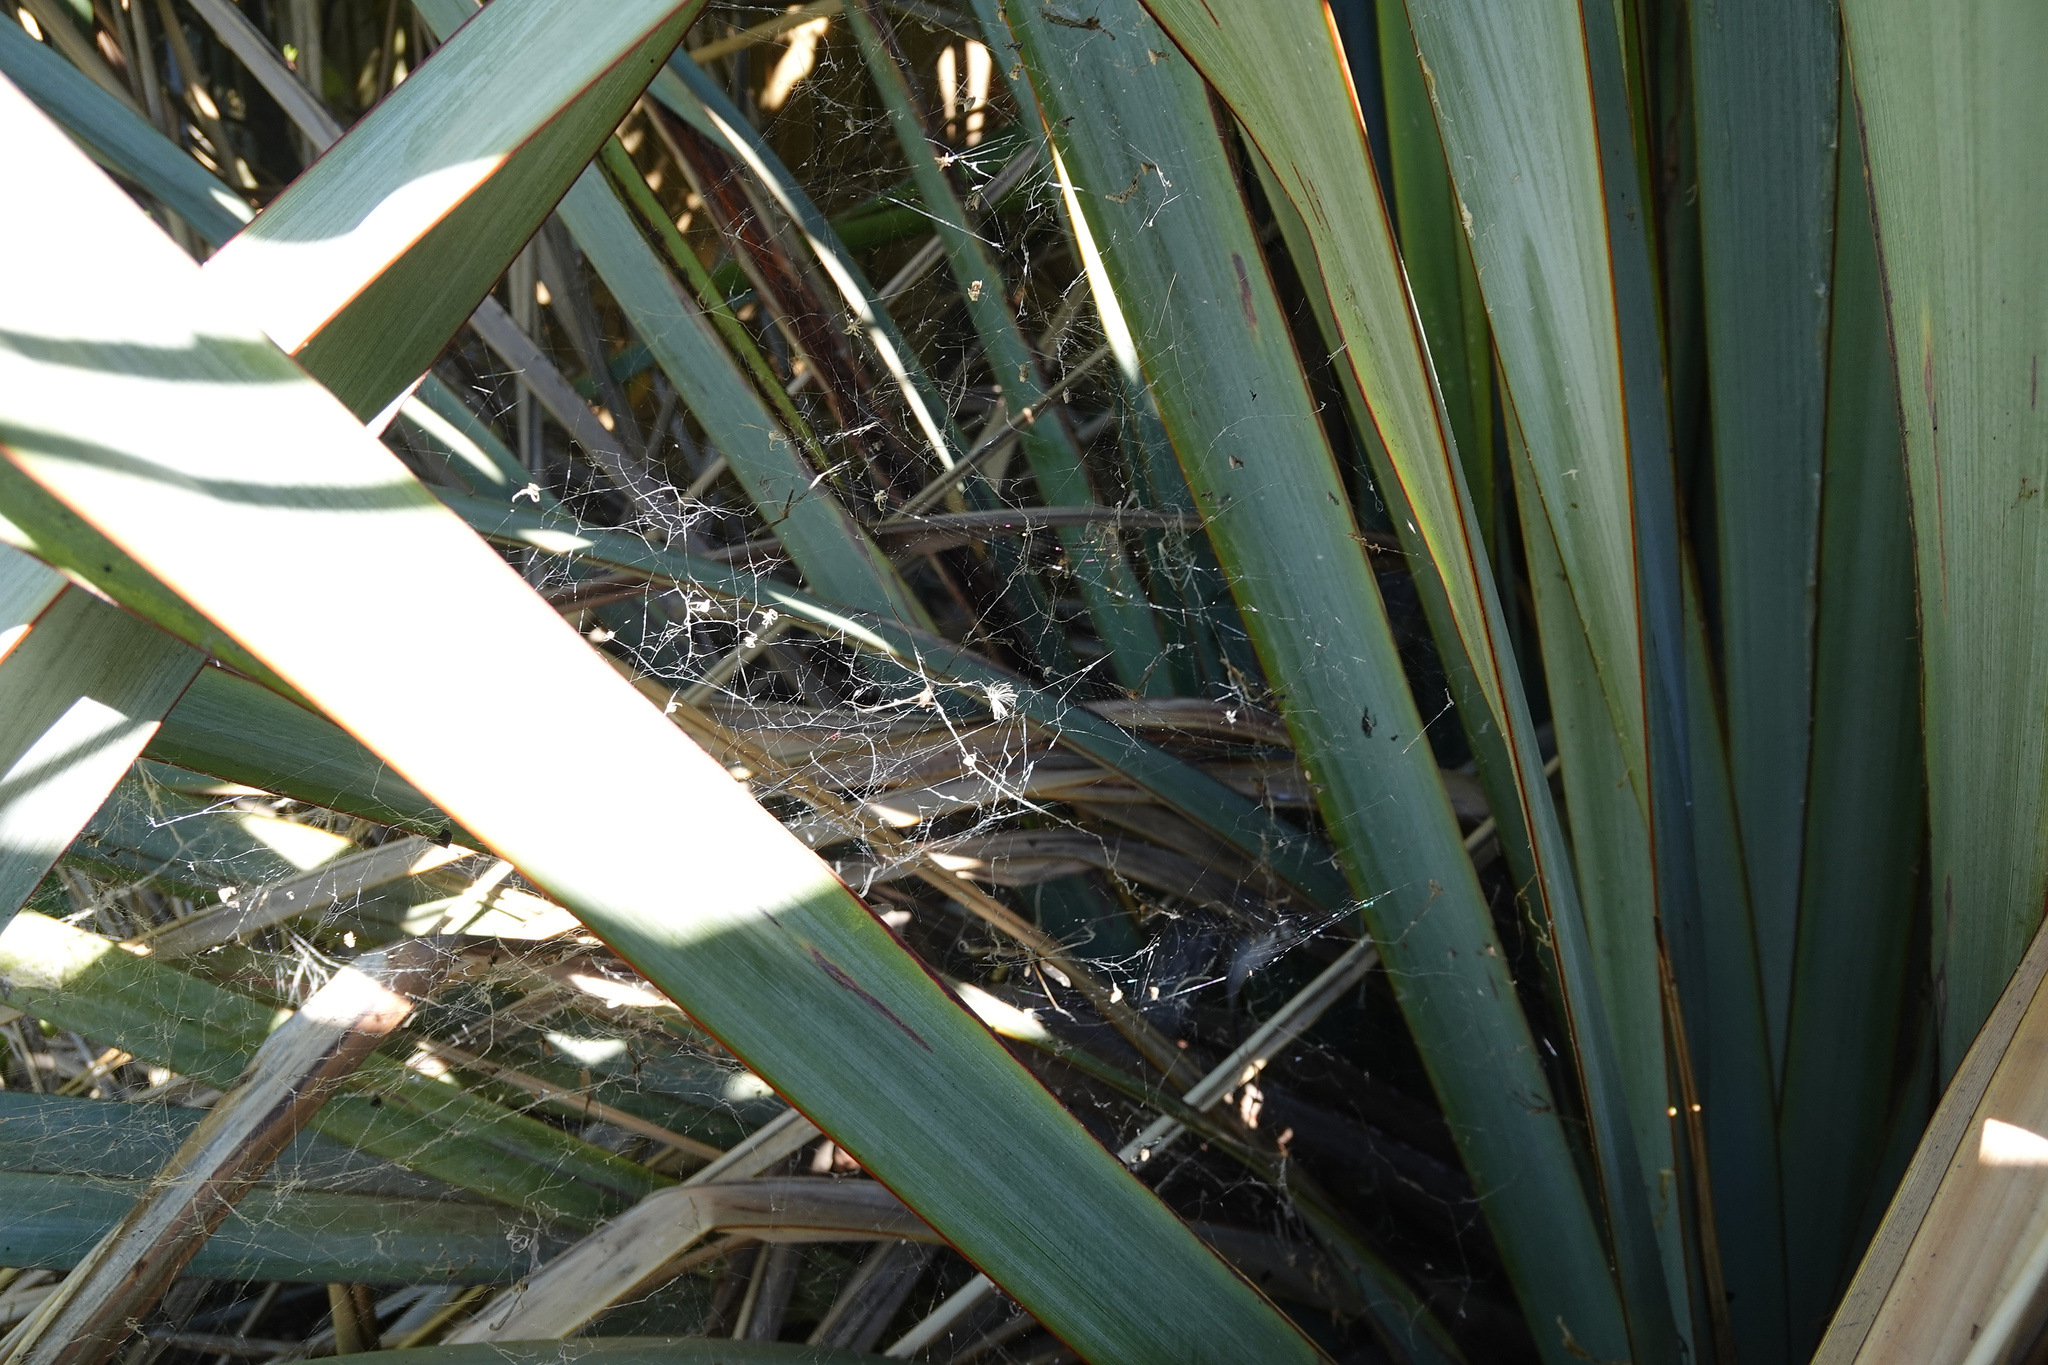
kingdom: Animalia
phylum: Arthropoda
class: Arachnida
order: Araneae
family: Uloboridae
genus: Philoponella
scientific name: Philoponella congregabilis
